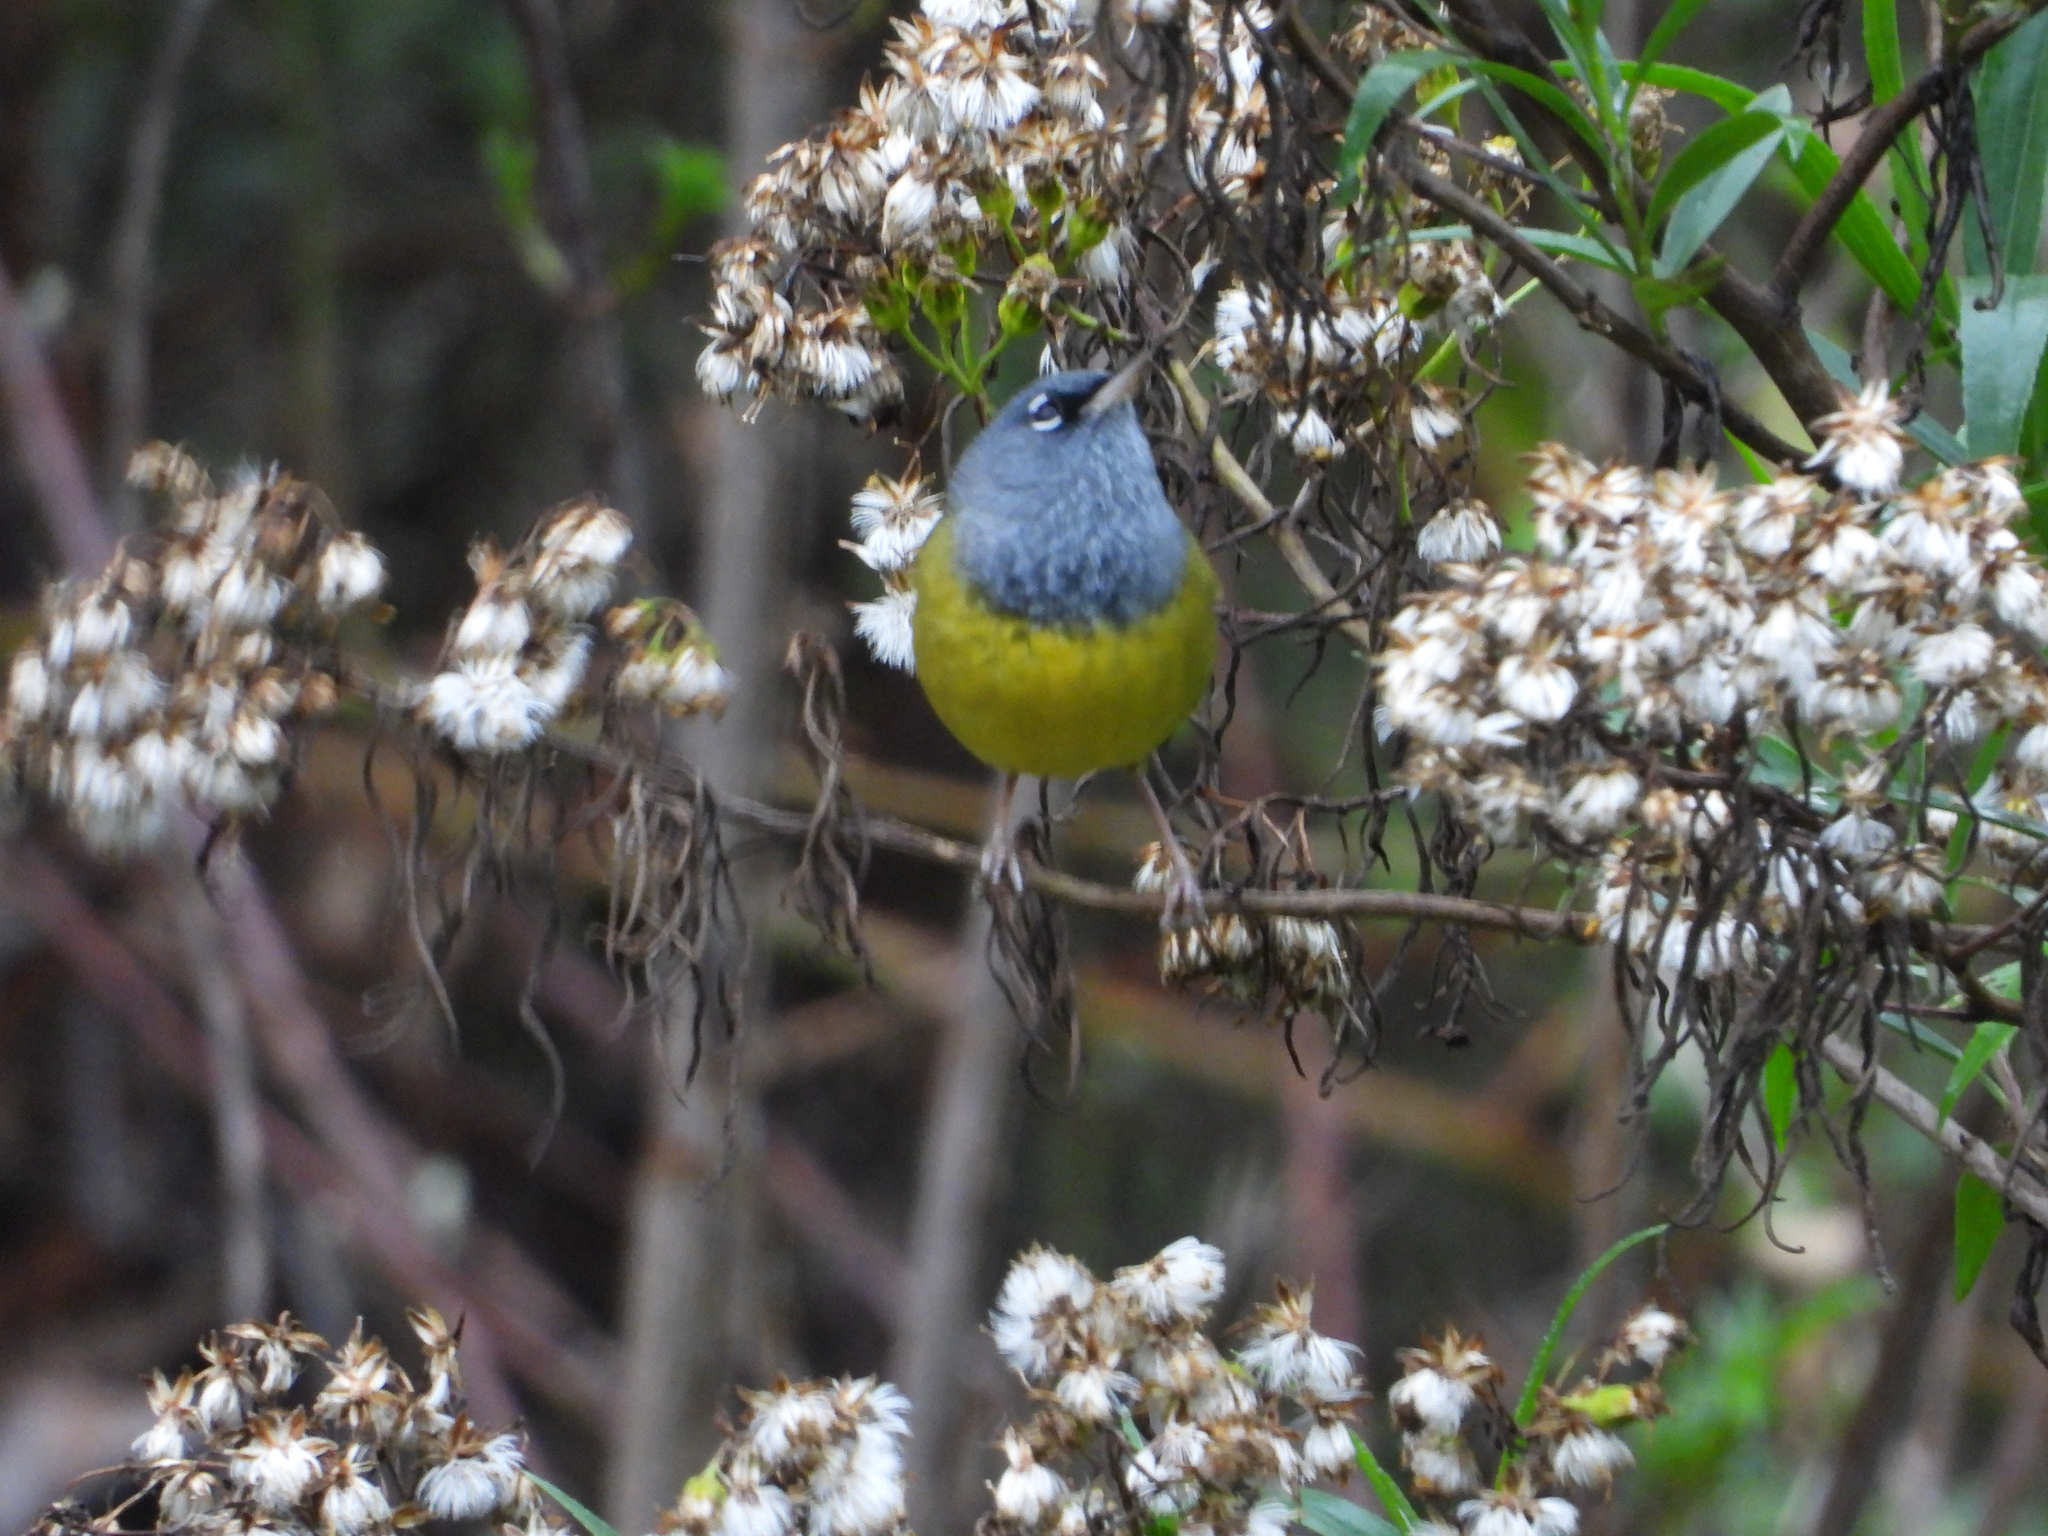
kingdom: Animalia
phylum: Chordata
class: Aves
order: Passeriformes
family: Parulidae
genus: Geothlypis
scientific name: Geothlypis tolmiei
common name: Macgillivray's warbler
